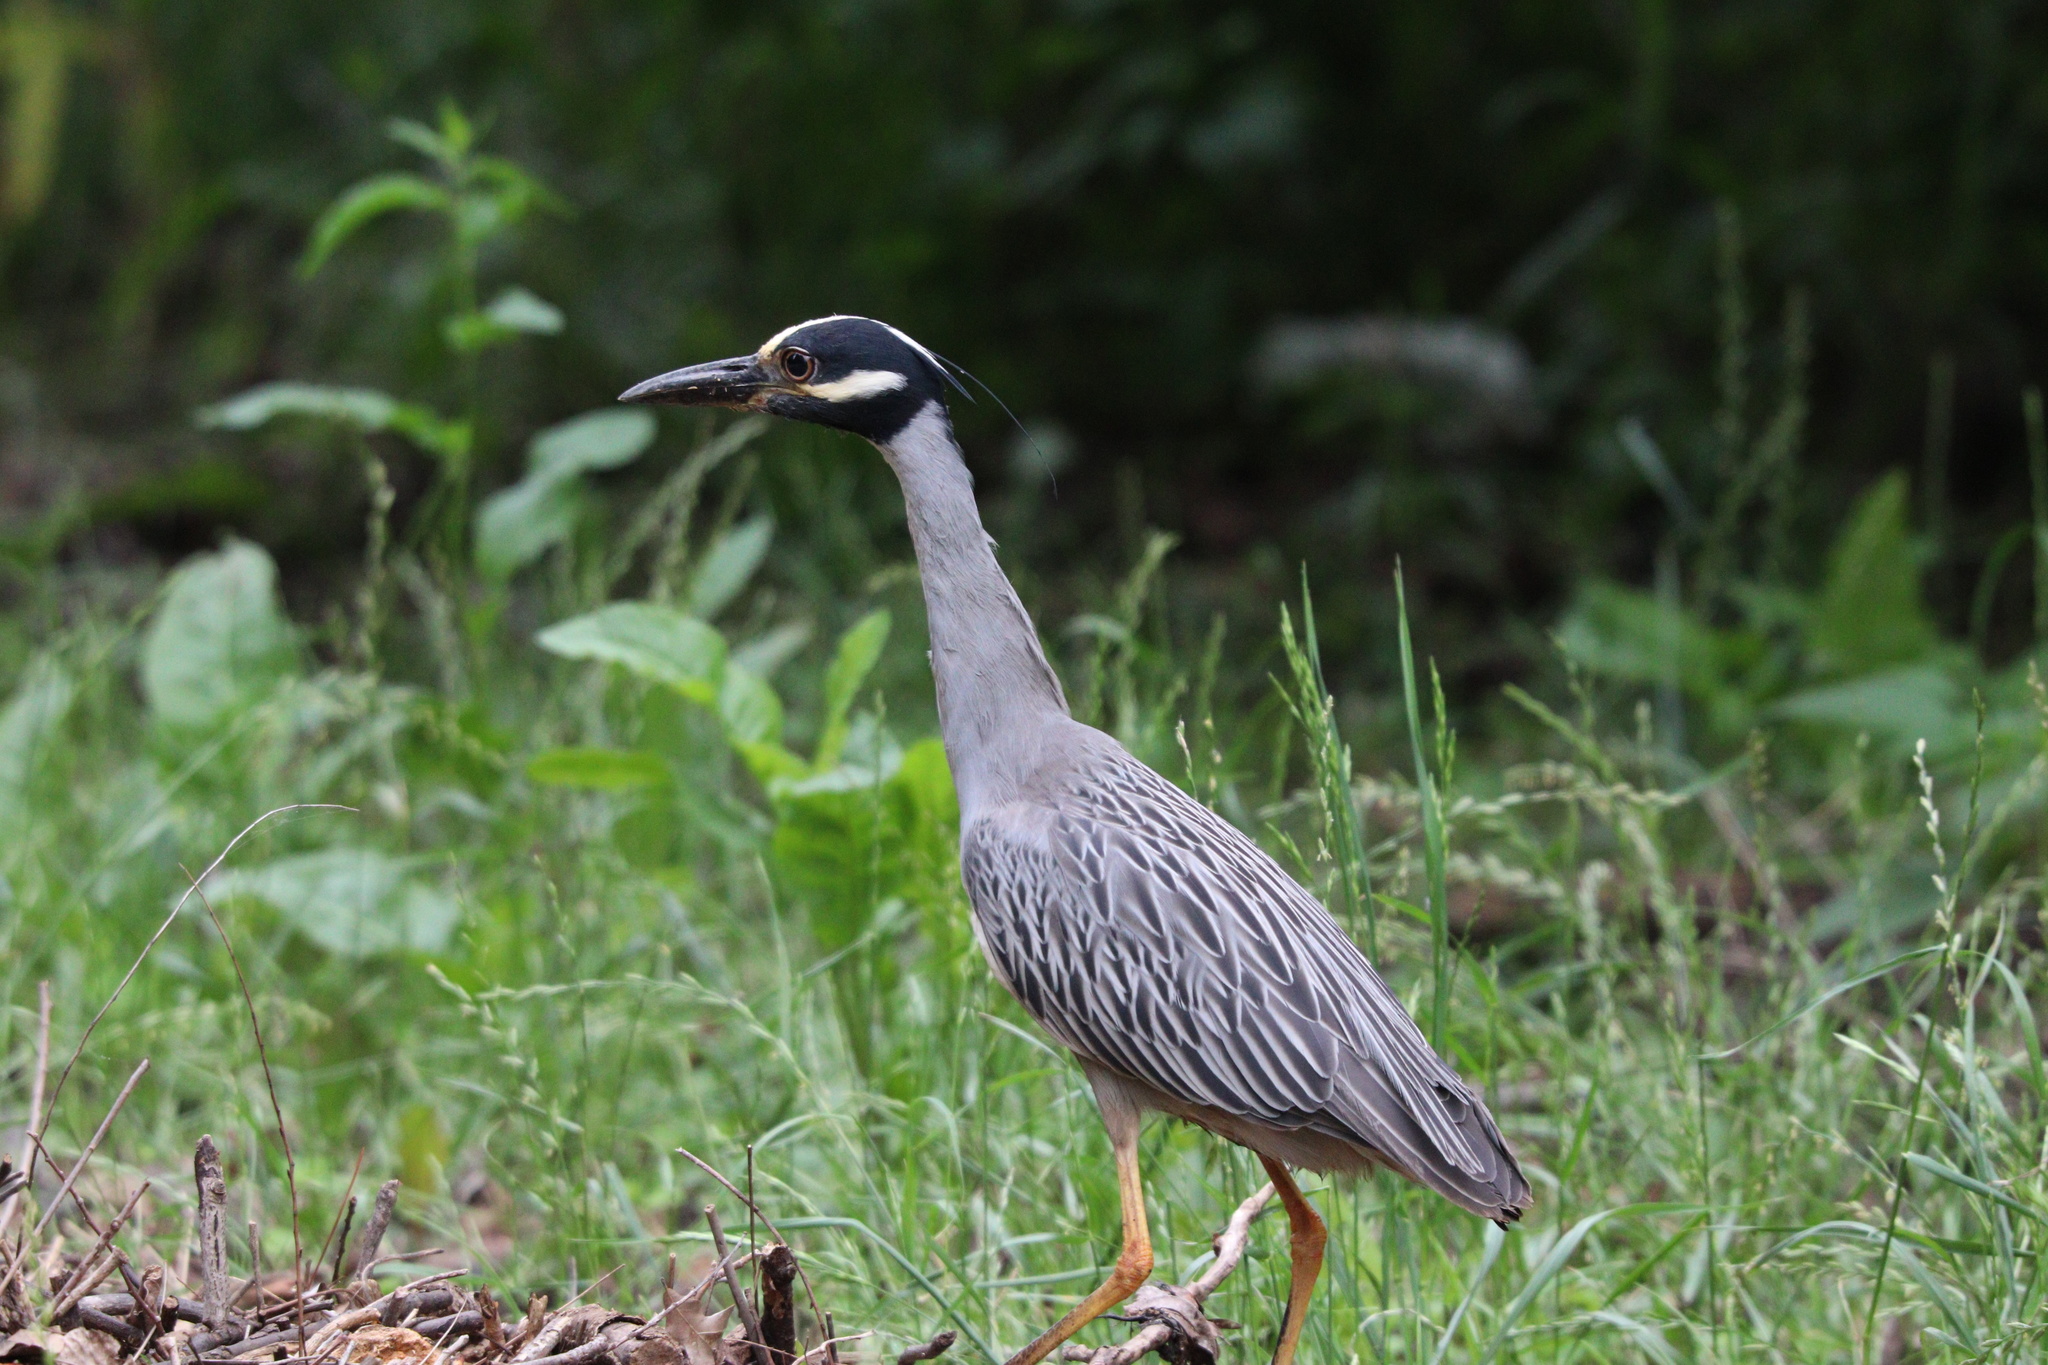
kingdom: Animalia
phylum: Chordata
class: Aves
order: Pelecaniformes
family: Ardeidae
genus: Nyctanassa
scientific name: Nyctanassa violacea
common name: Yellow-crowned night heron
